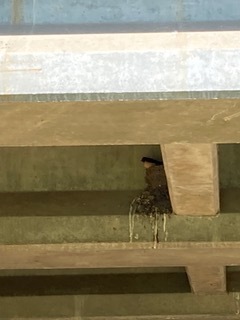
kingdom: Animalia
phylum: Chordata
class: Aves
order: Passeriformes
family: Hirundinidae
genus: Hirundo
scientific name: Hirundo rustica
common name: Barn swallow
